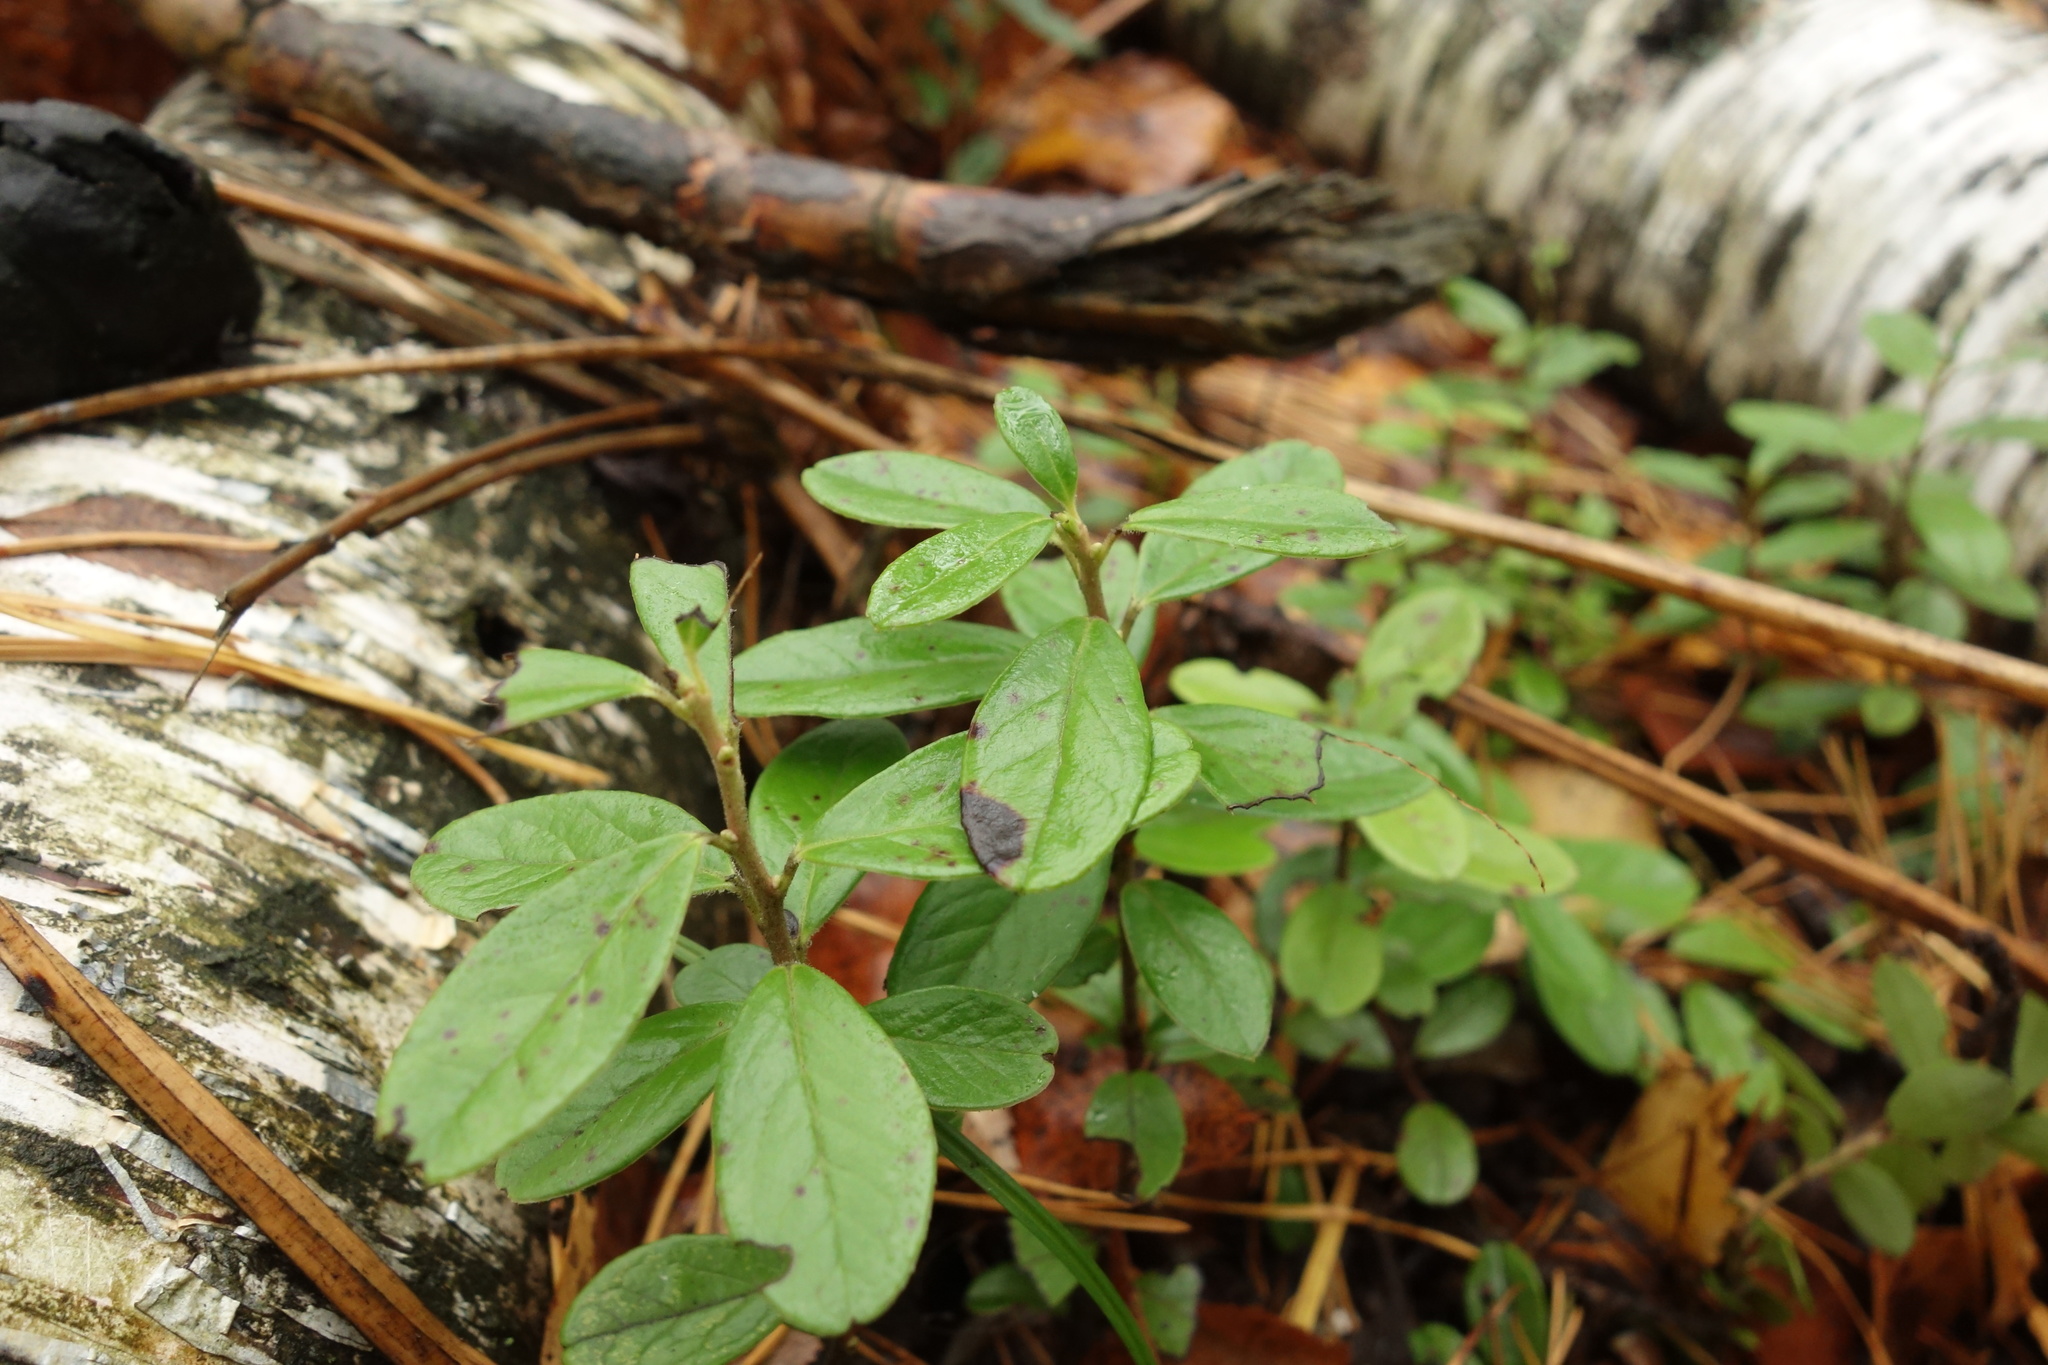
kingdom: Plantae
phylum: Tracheophyta
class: Magnoliopsida
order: Ericales
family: Ericaceae
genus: Vaccinium
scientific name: Vaccinium vitis-idaea
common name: Cowberry
